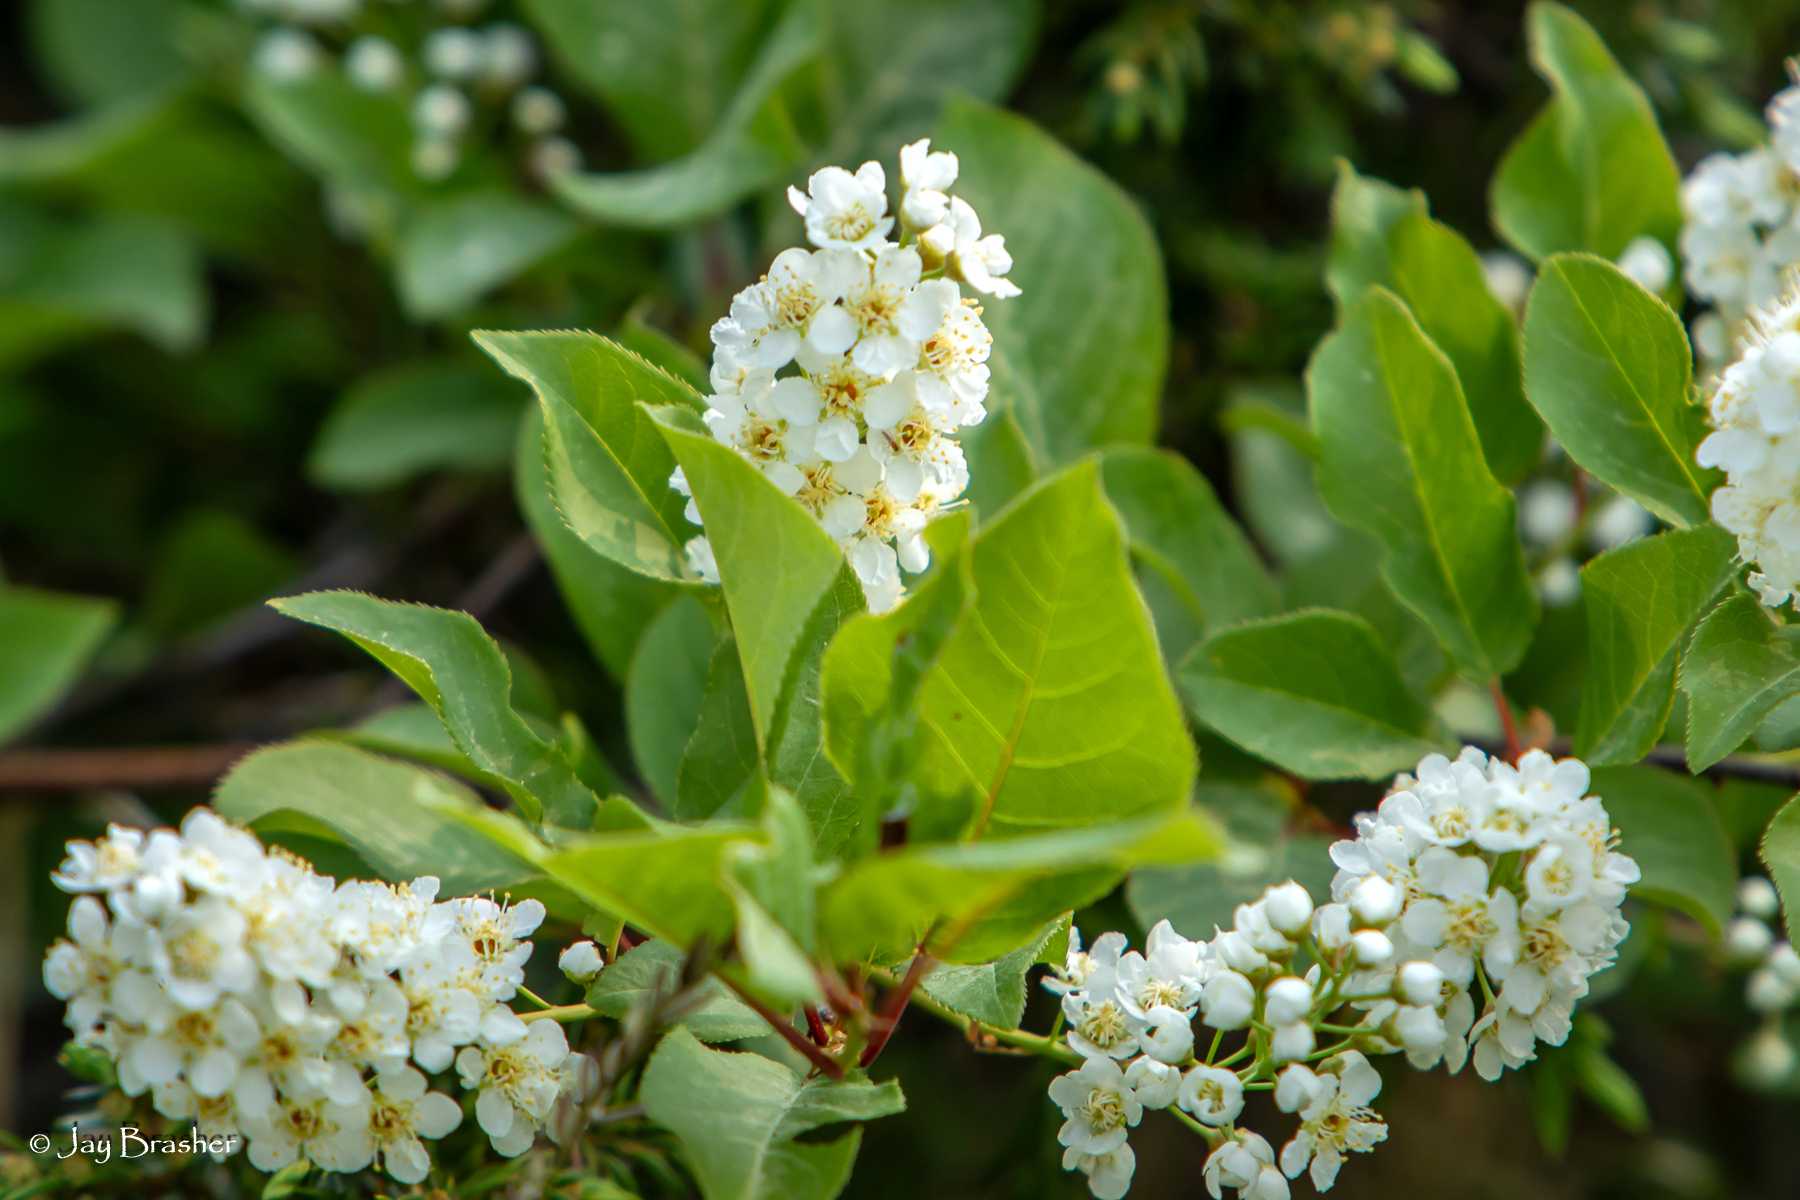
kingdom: Plantae
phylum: Tracheophyta
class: Magnoliopsida
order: Rosales
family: Rosaceae
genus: Prunus
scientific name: Prunus virginiana
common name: Chokecherry
